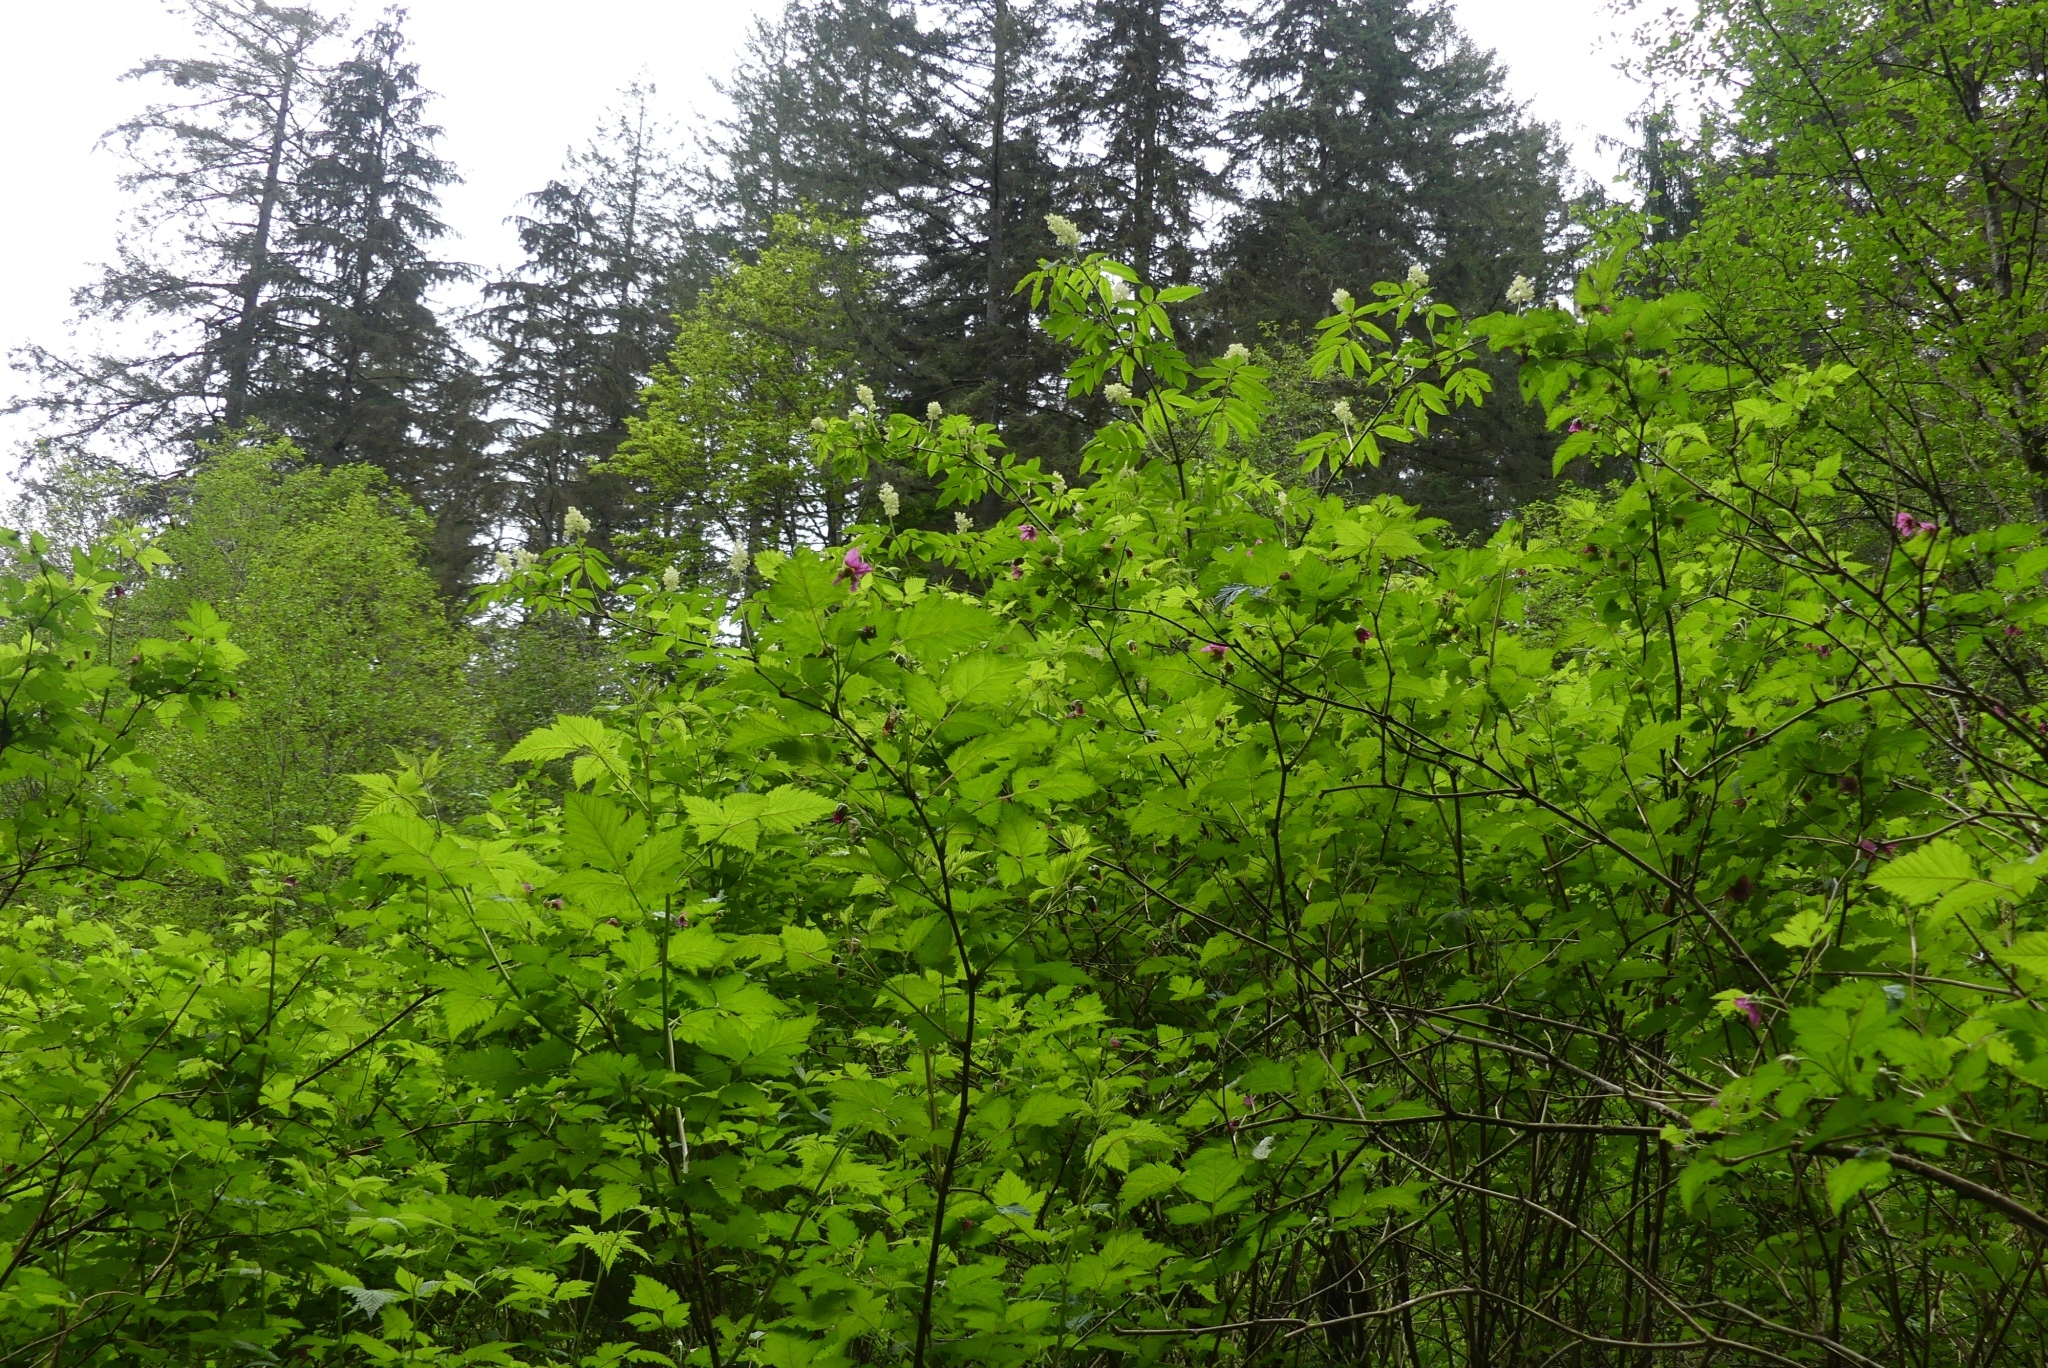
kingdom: Plantae
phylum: Tracheophyta
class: Magnoliopsida
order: Rosales
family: Rosaceae
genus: Rubus
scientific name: Rubus spectabilis
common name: Salmonberry
